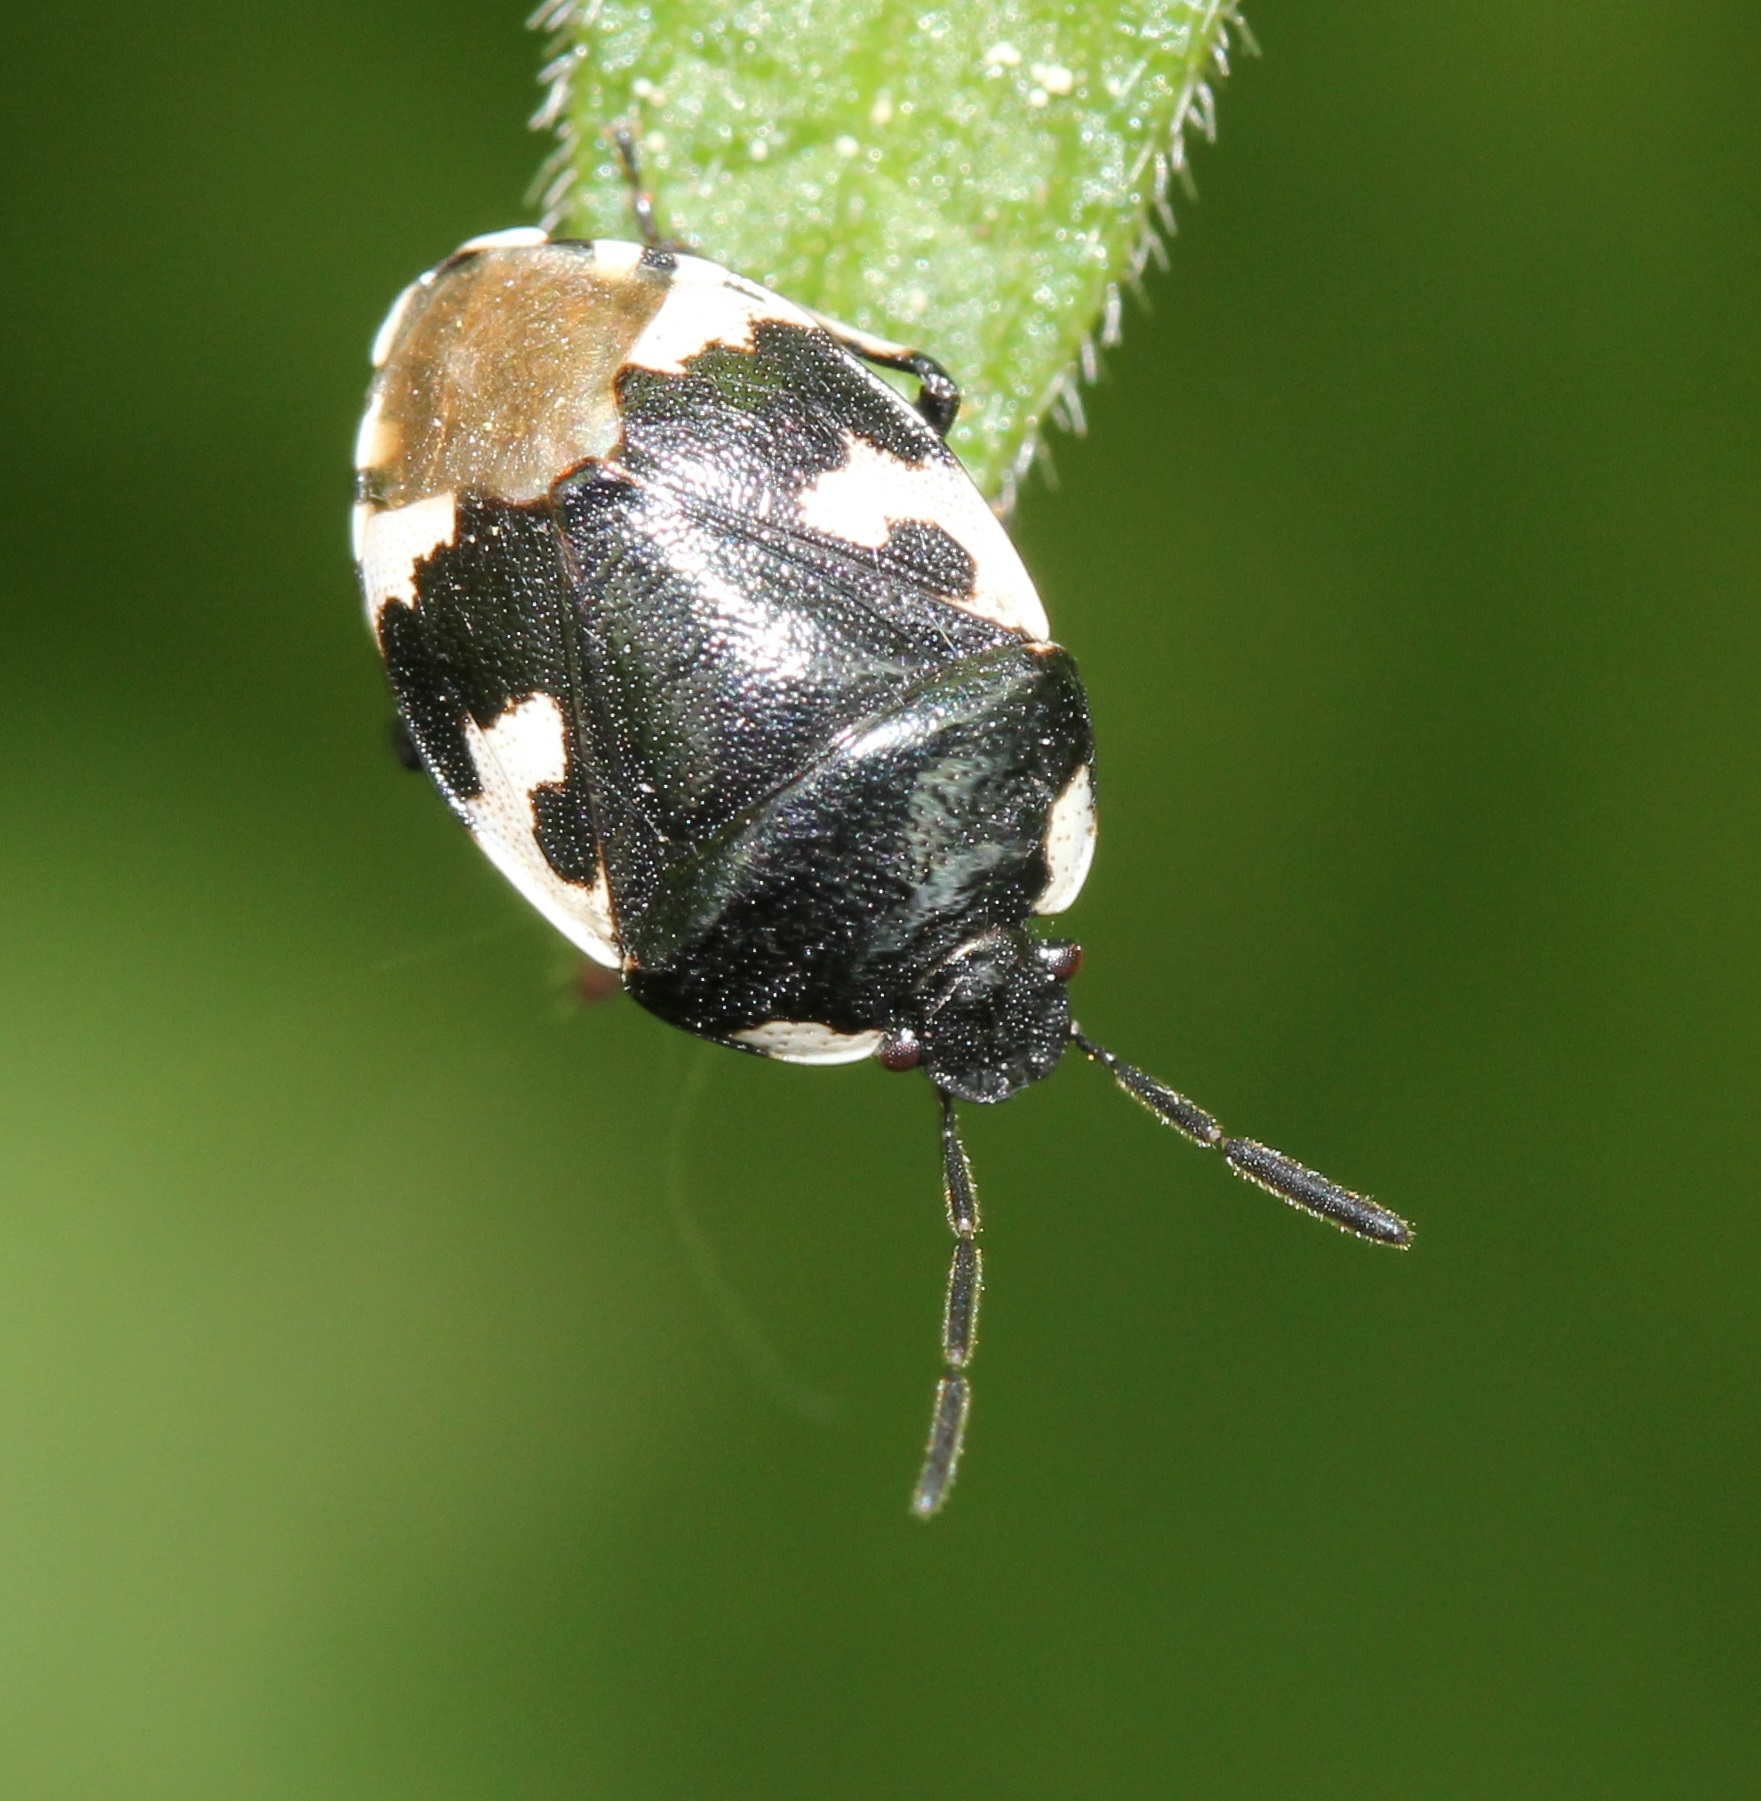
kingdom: Animalia
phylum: Arthropoda
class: Insecta
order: Hemiptera
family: Cydnidae
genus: Tritomegas
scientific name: Tritomegas bicolor
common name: Pied shieldbug
